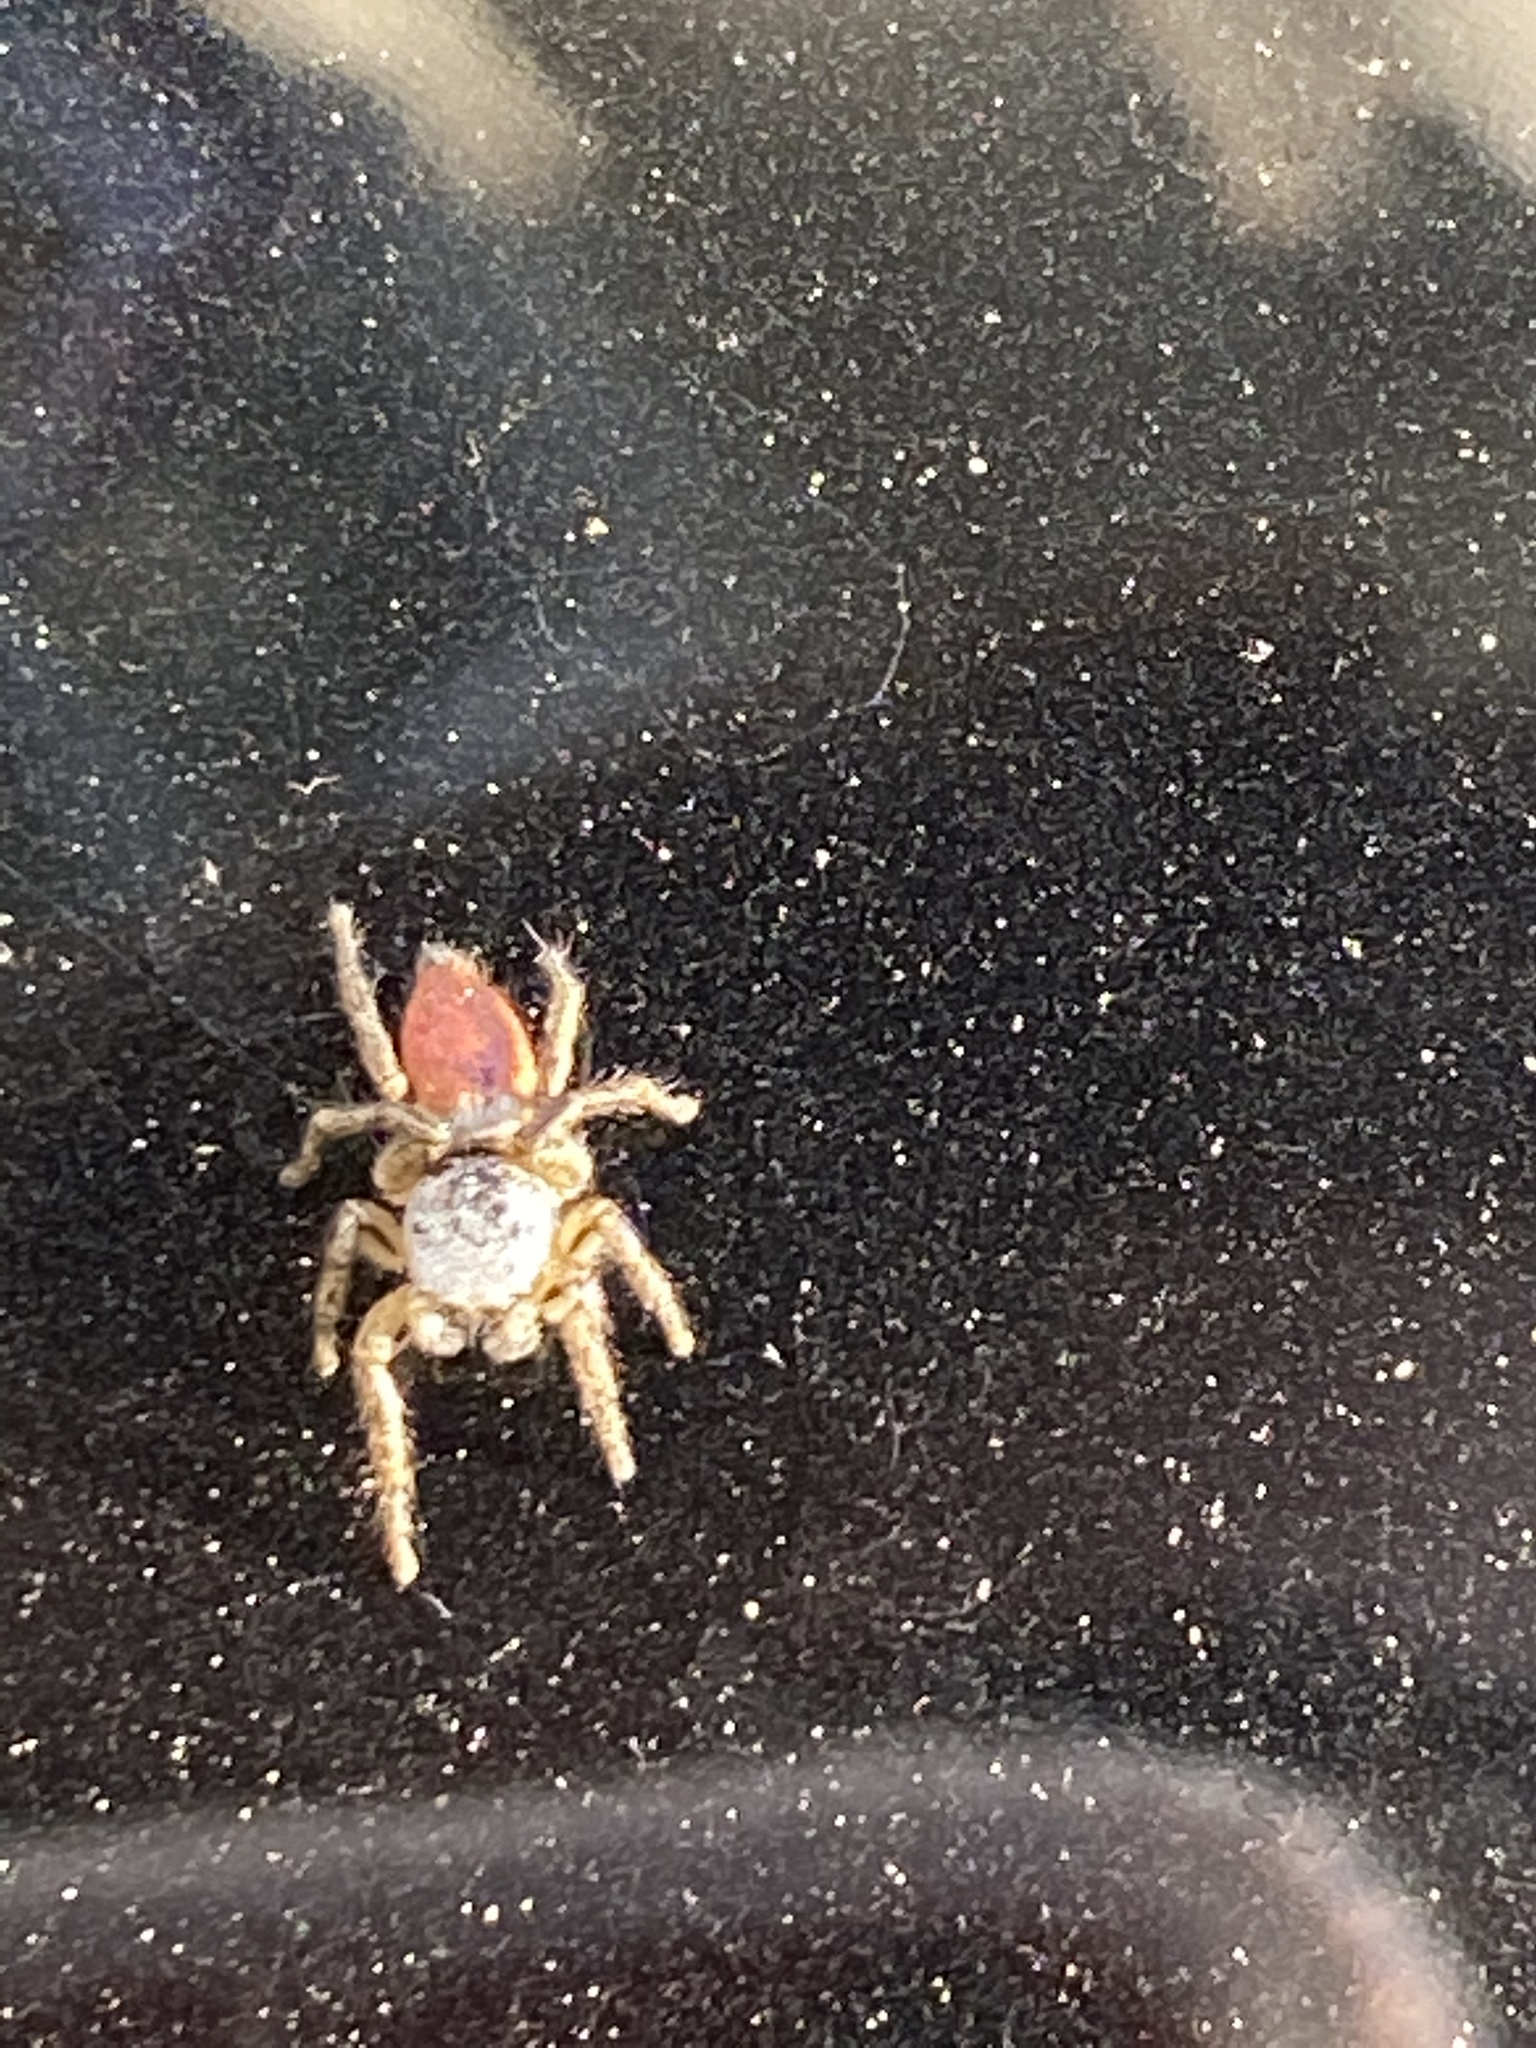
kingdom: Animalia
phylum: Arthropoda
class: Arachnida
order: Araneae
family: Salticidae
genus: Habronattus
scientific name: Habronattus decorus
